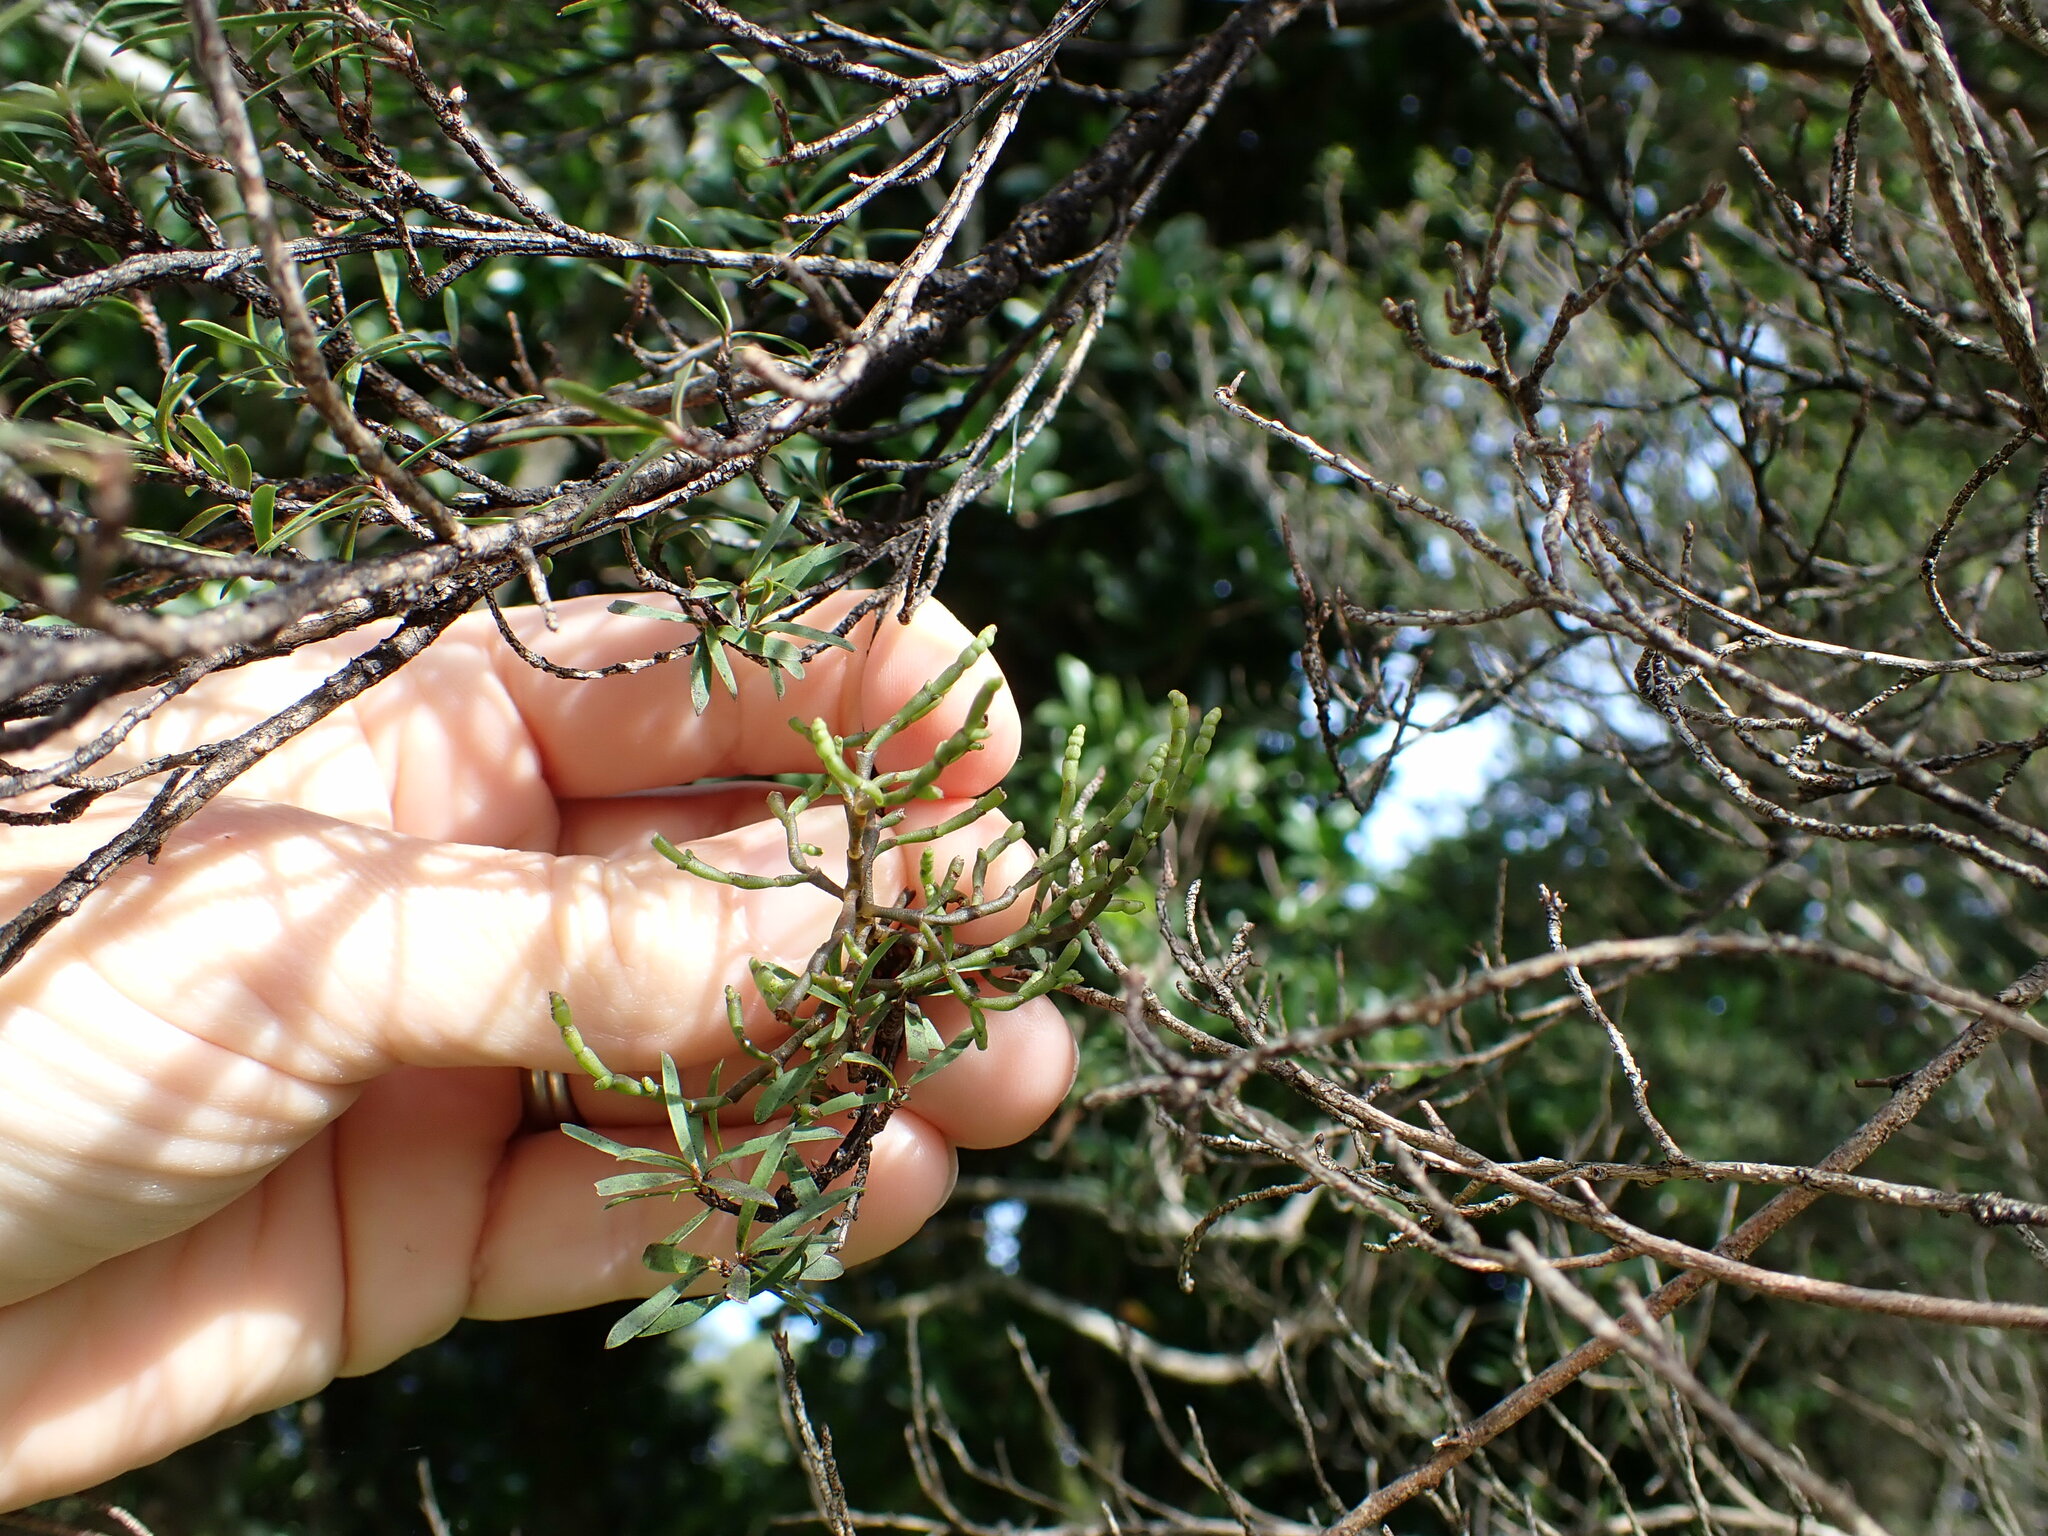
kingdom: Plantae
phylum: Tracheophyta
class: Magnoliopsida
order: Santalales
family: Viscaceae
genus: Korthalsella
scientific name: Korthalsella salicornioides
